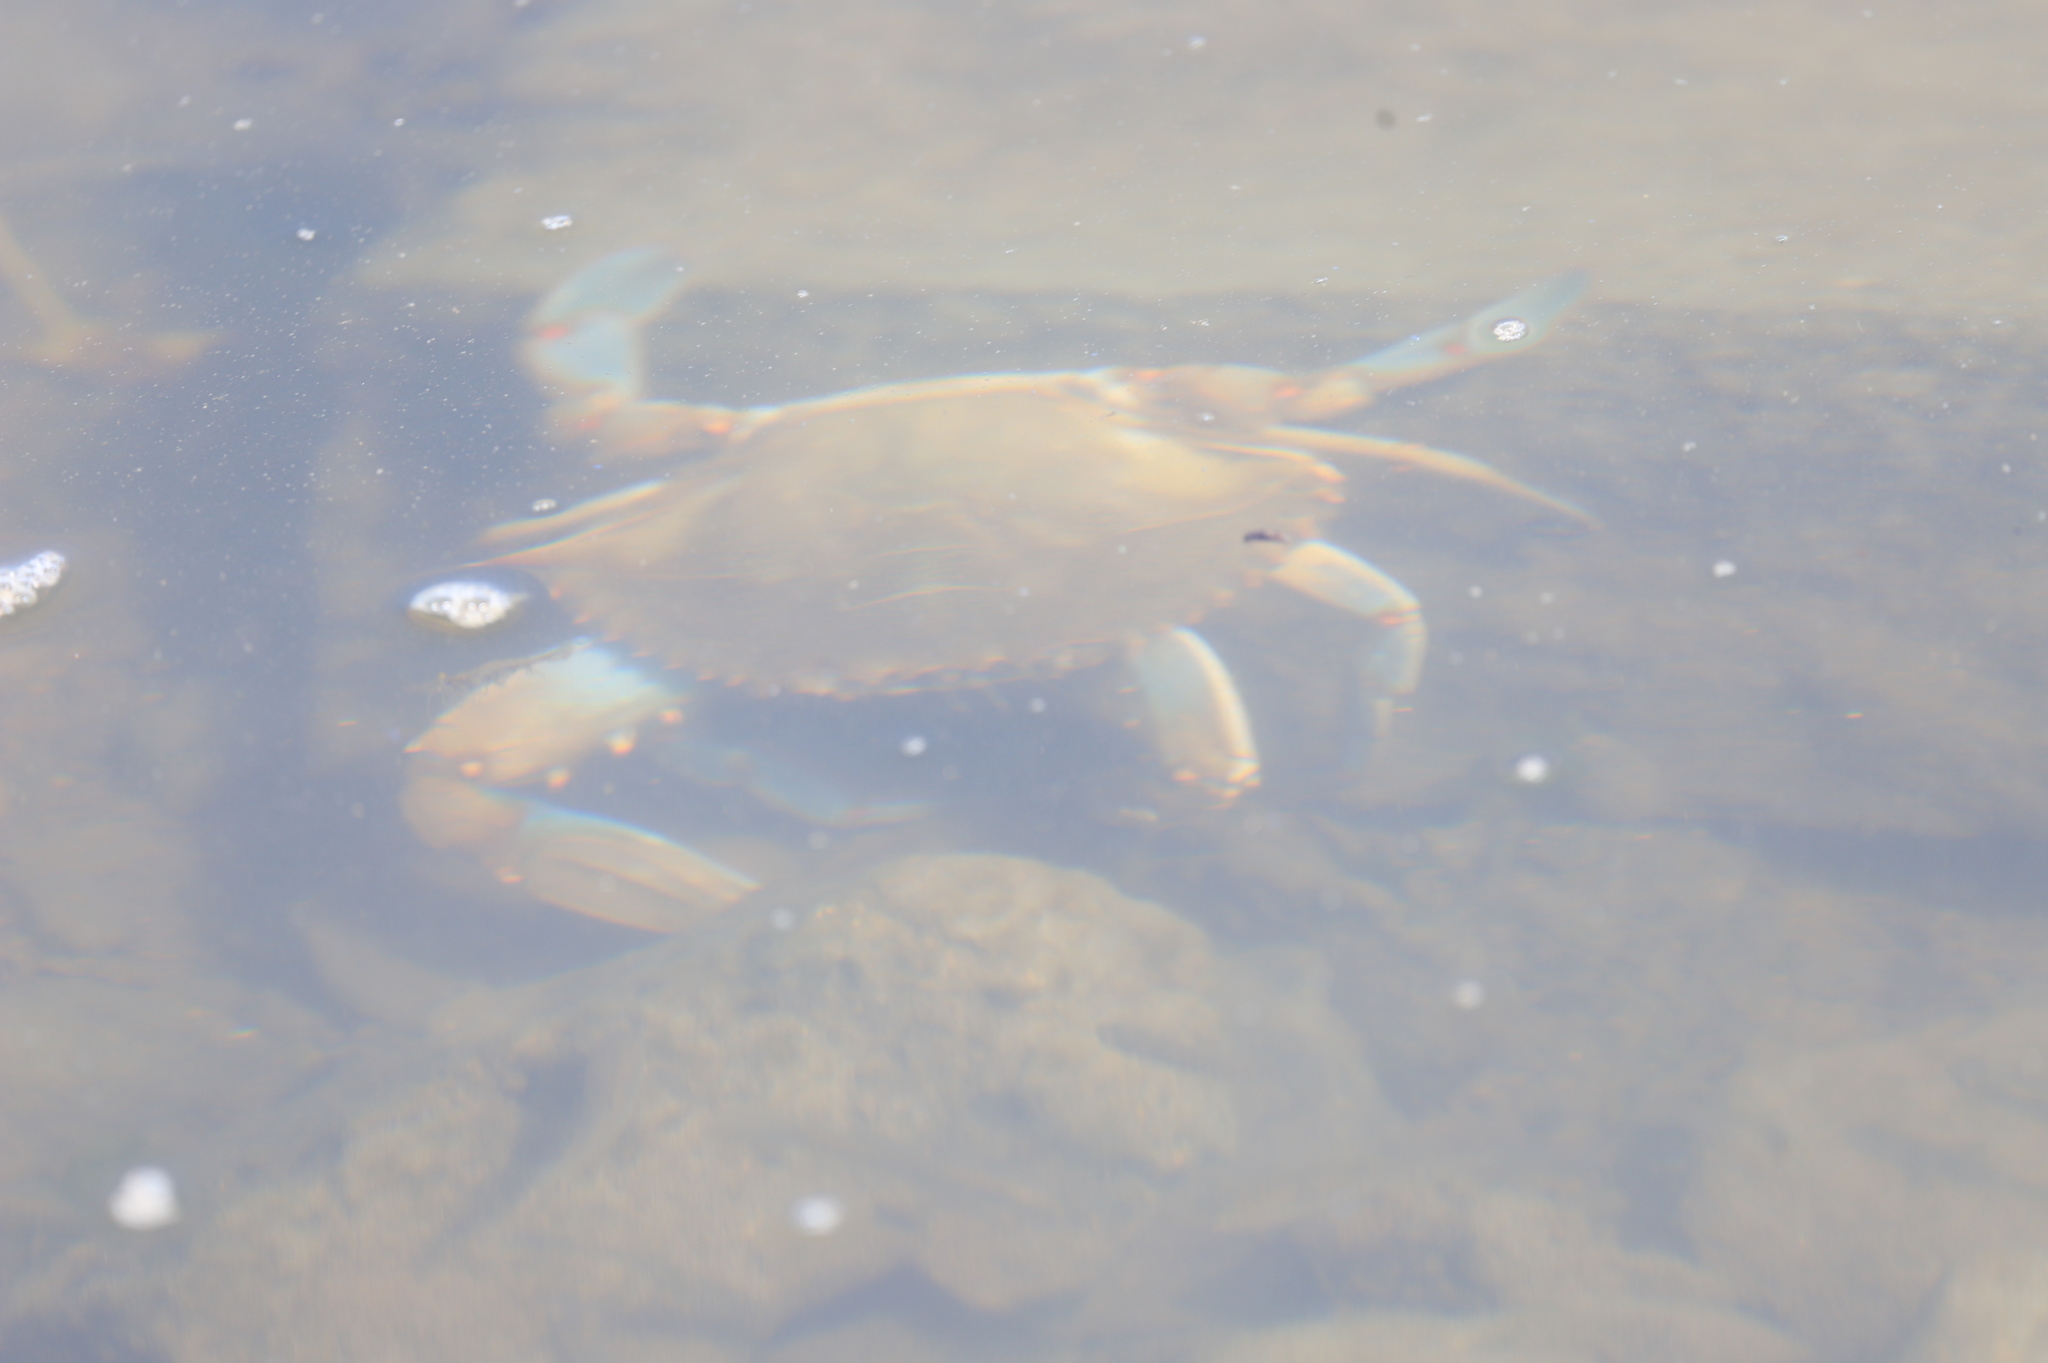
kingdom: Animalia
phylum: Arthropoda
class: Malacostraca
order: Decapoda
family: Portunidae
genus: Callinectes
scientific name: Callinectes sapidus
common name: Blue crab
